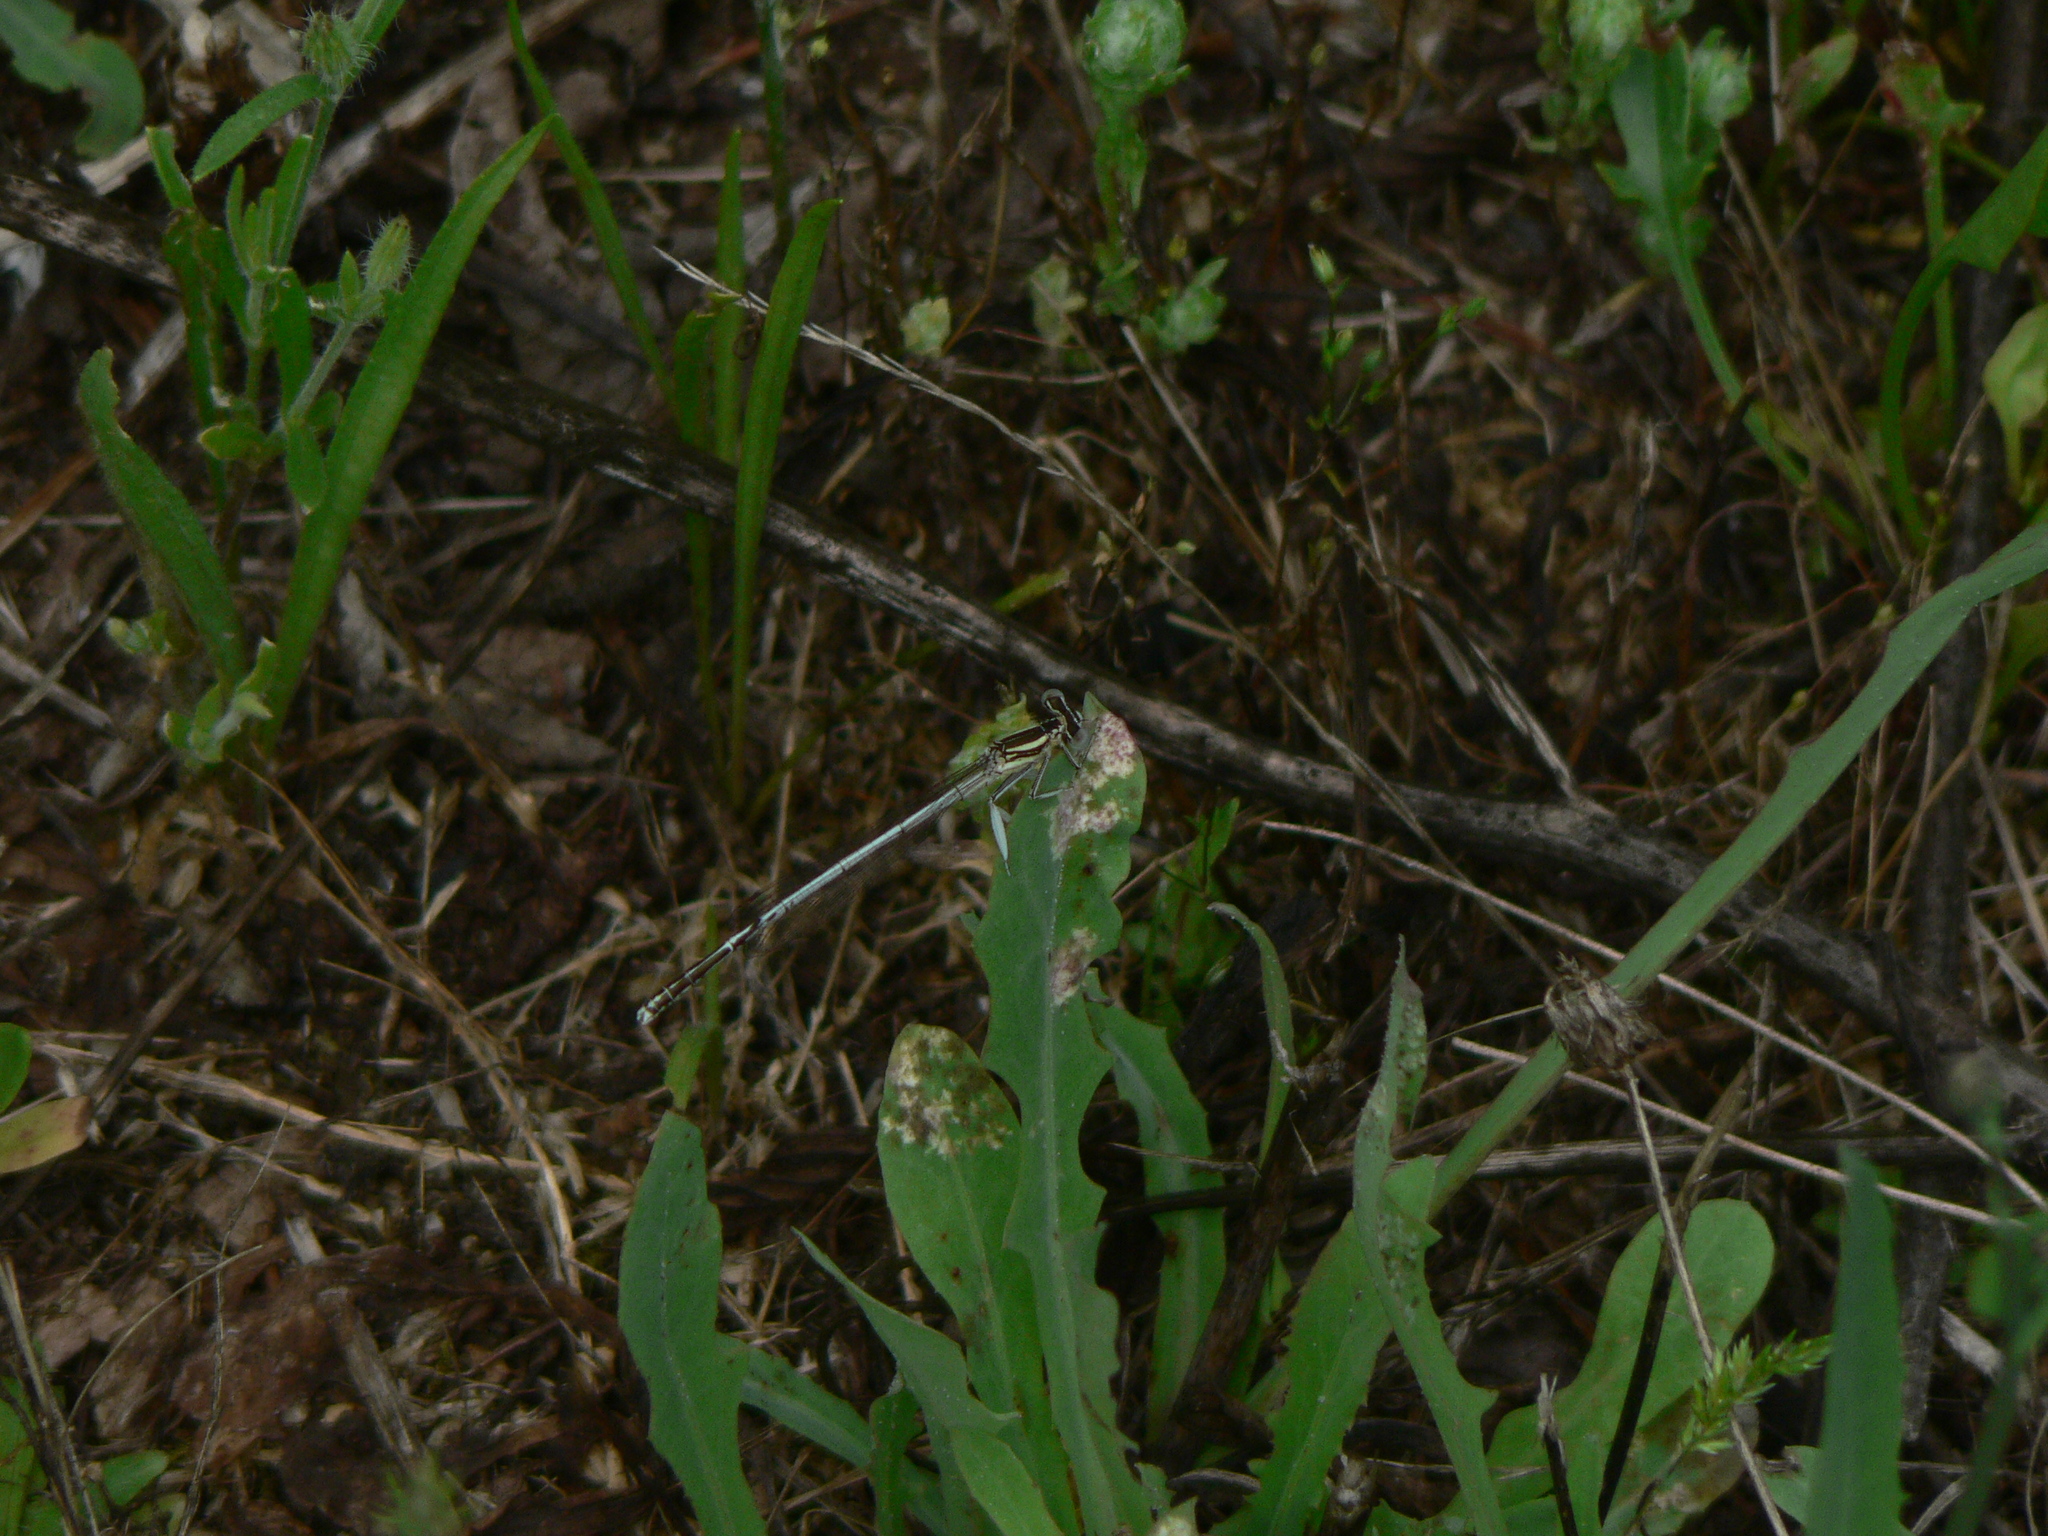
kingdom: Animalia
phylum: Arthropoda
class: Insecta
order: Odonata
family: Platycnemididae
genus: Platycnemis
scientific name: Platycnemis latipes
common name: White featherleg
